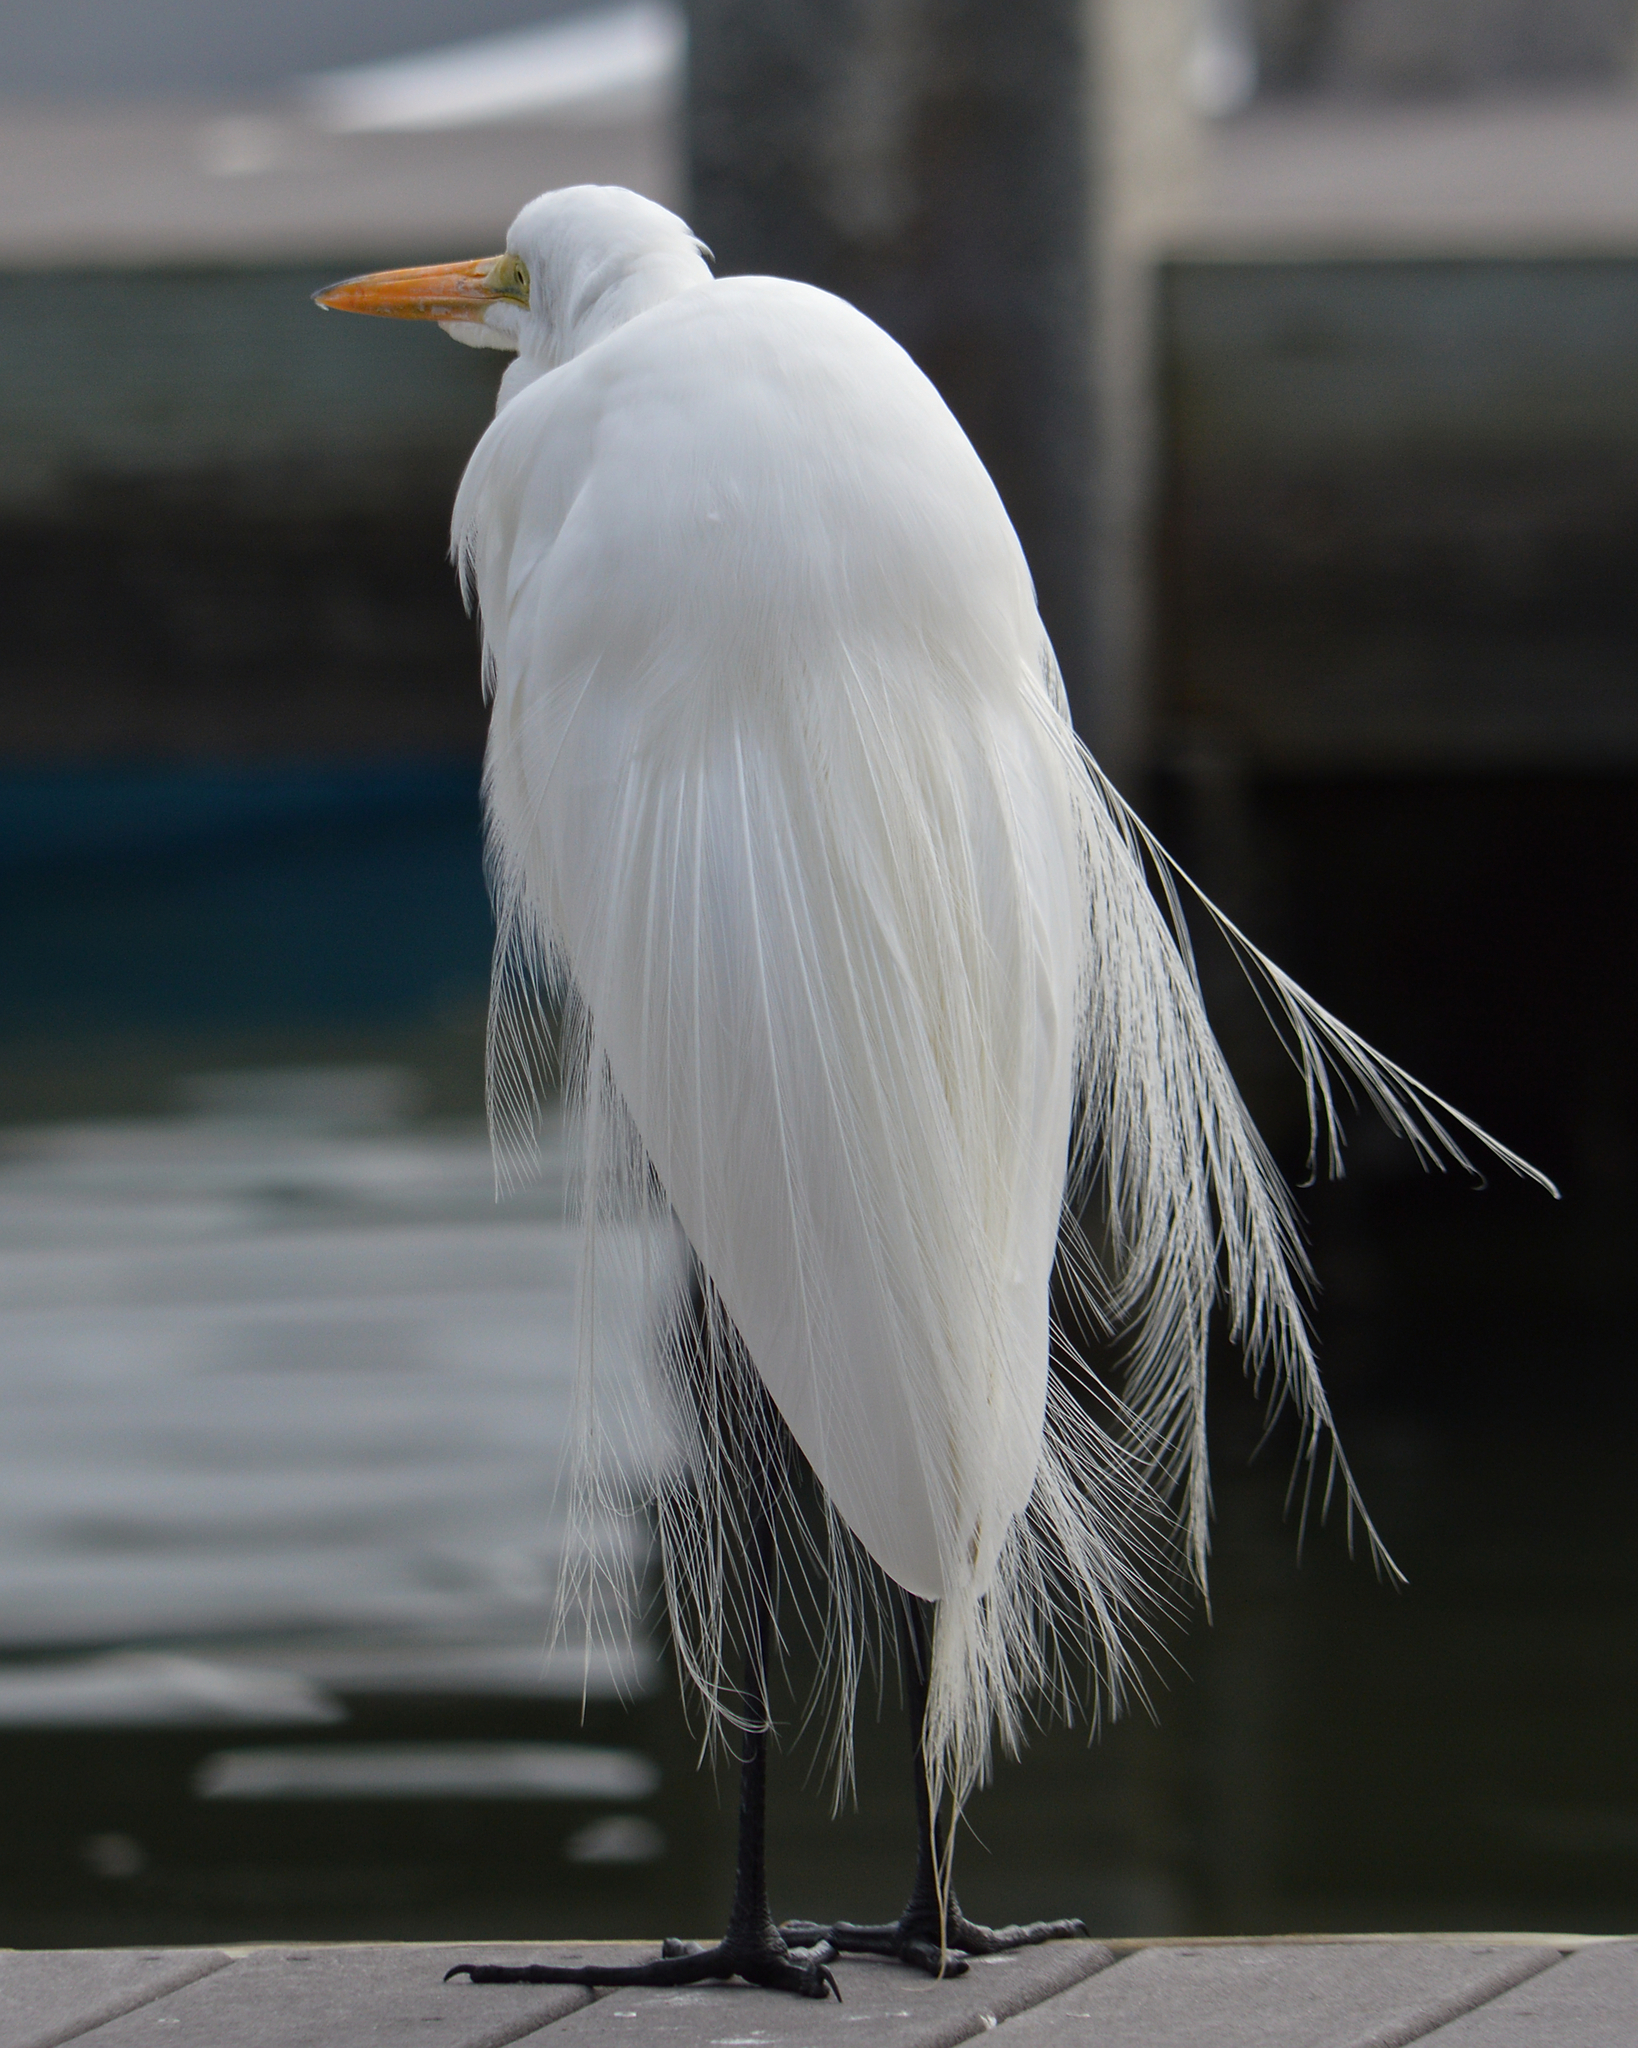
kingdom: Animalia
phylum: Chordata
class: Aves
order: Pelecaniformes
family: Ardeidae
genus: Ardea
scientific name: Ardea alba
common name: Great egret
